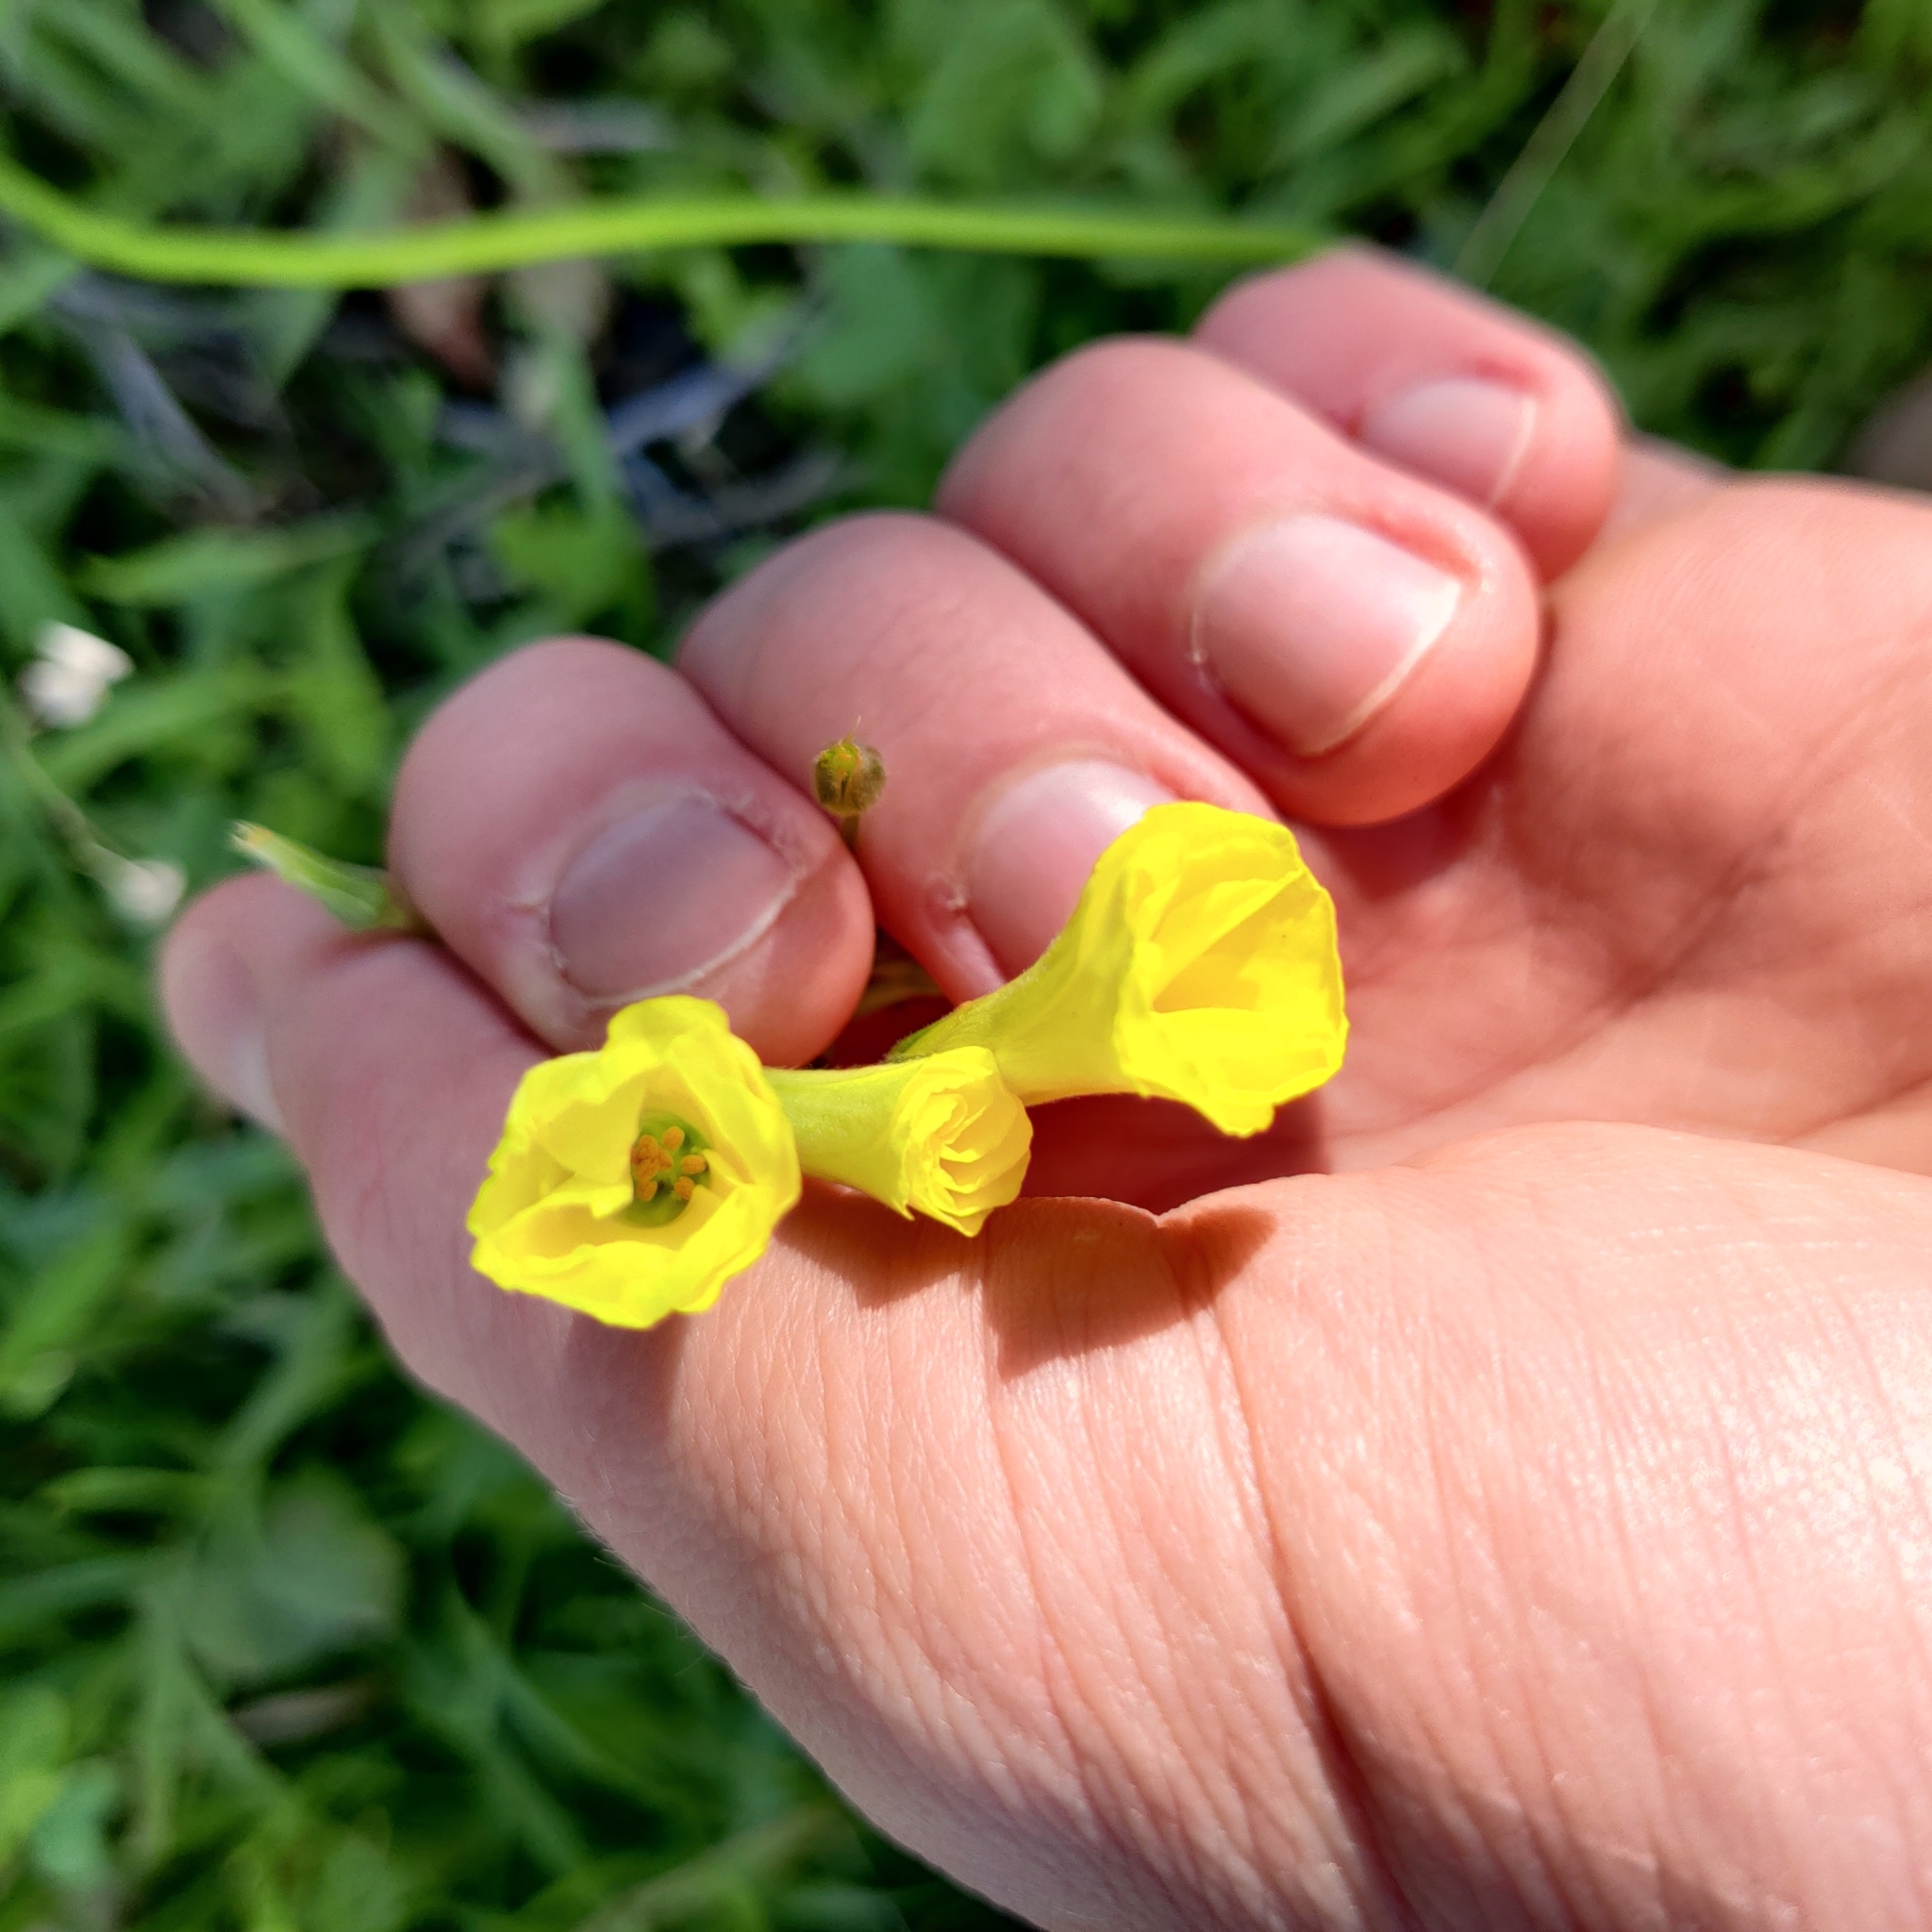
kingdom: Plantae
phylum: Tracheophyta
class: Magnoliopsida
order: Oxalidales
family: Oxalidaceae
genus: Oxalis
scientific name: Oxalis pes-caprae
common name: Bermuda-buttercup
